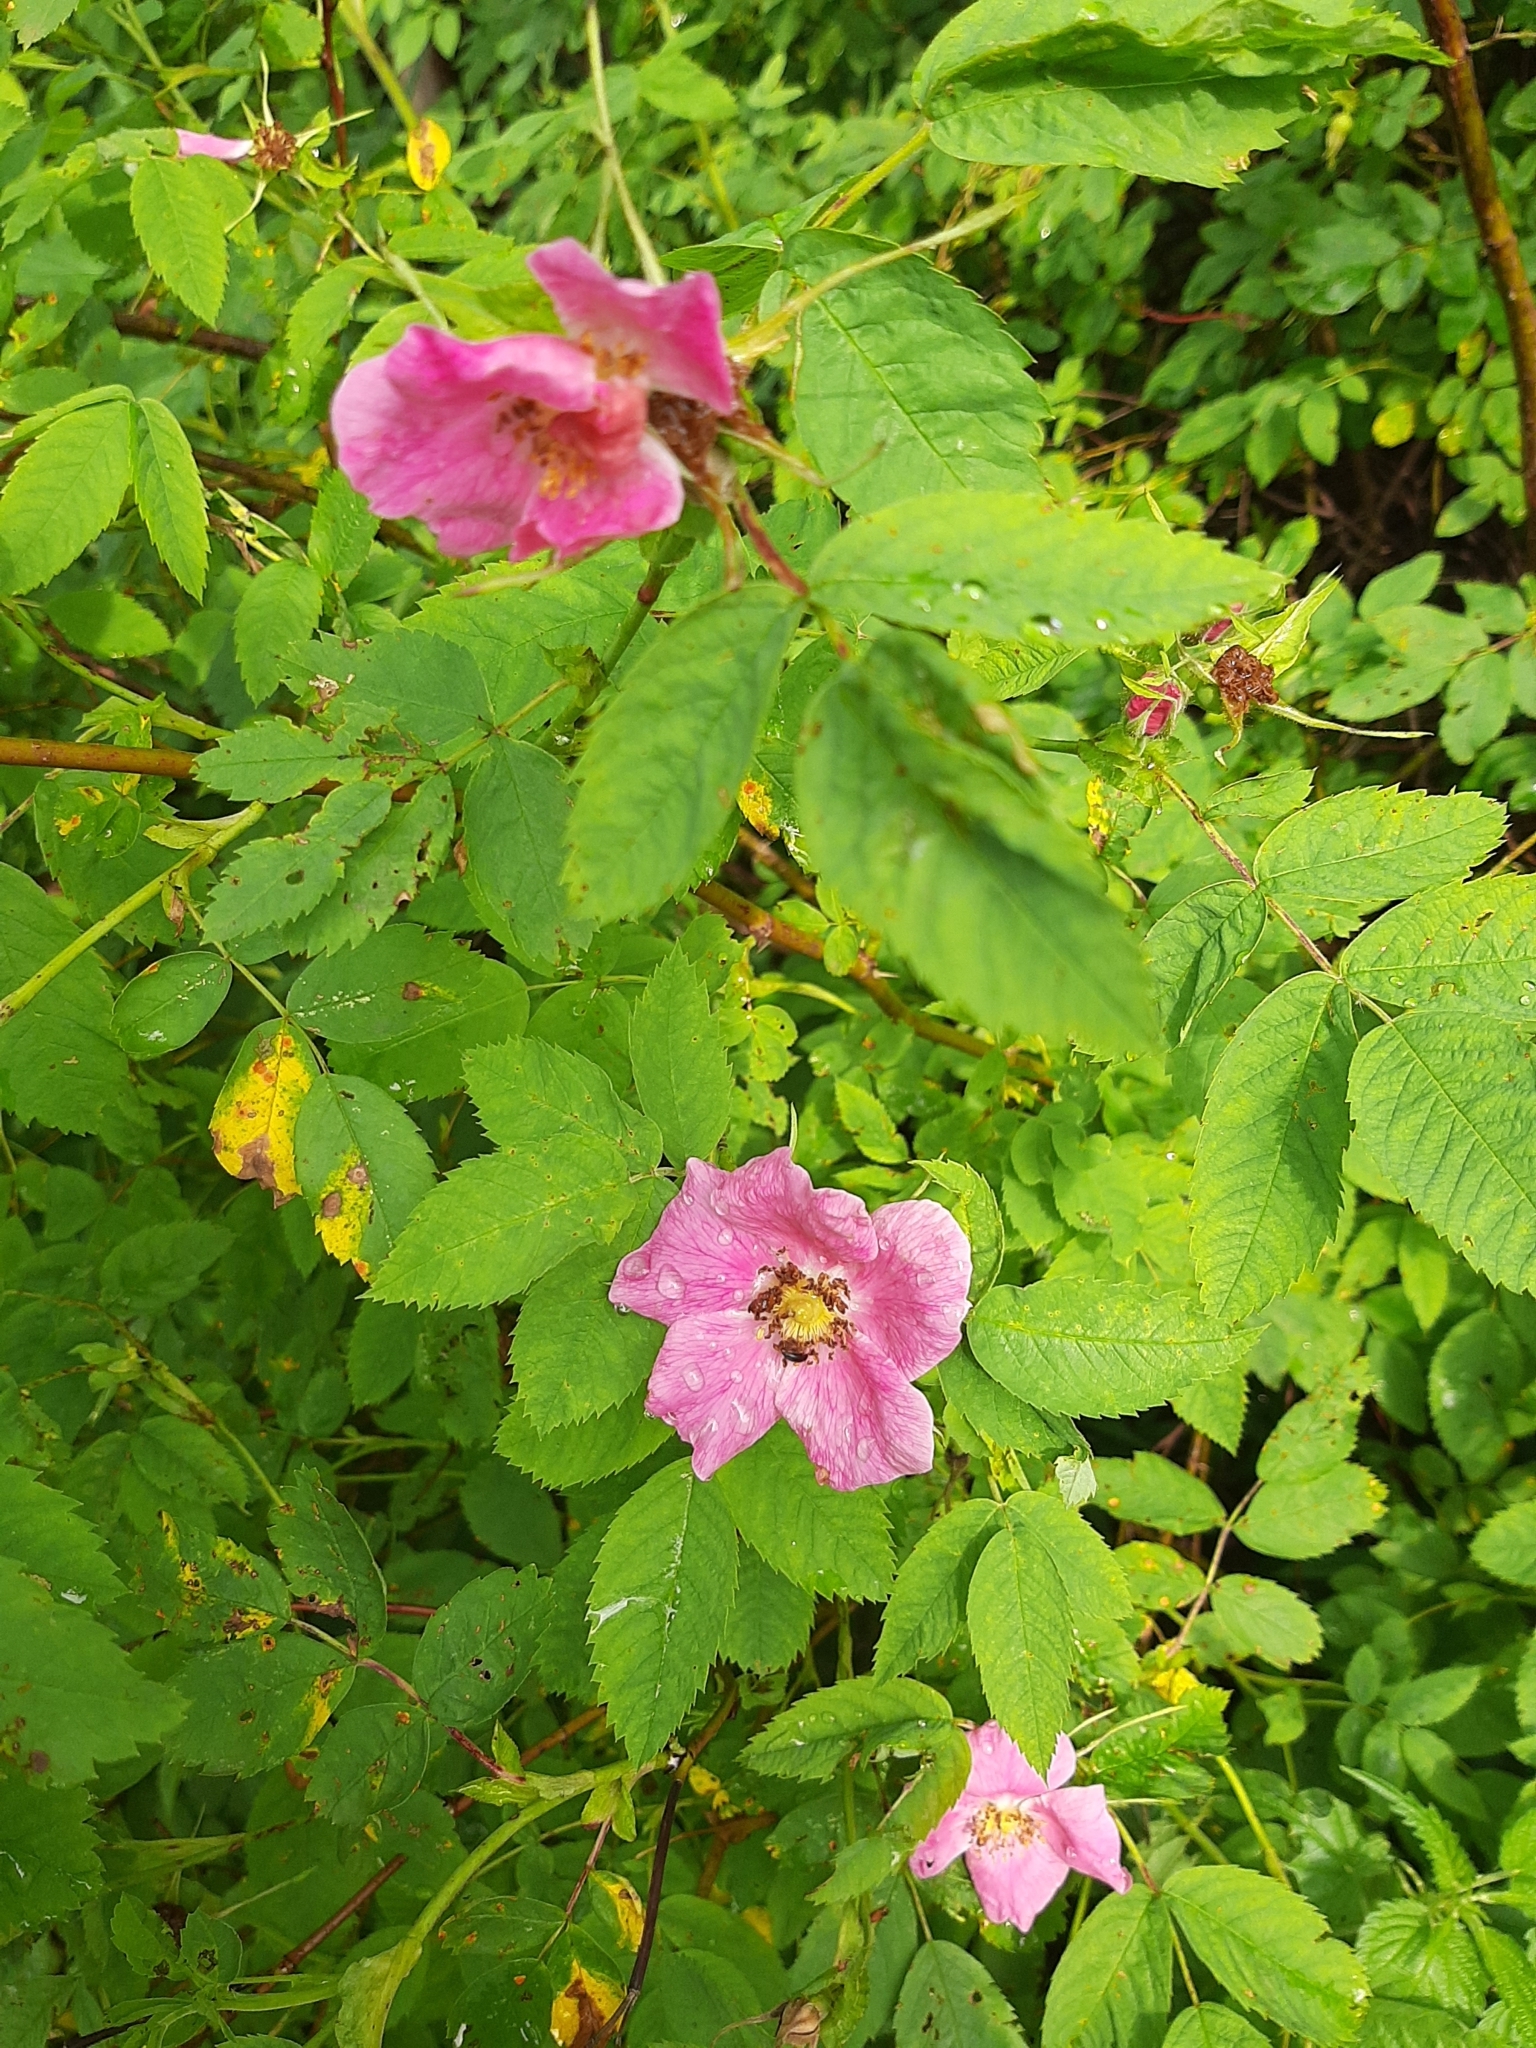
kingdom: Plantae
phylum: Tracheophyta
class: Magnoliopsida
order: Rosales
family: Rosaceae
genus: Rosa
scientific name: Rosa
